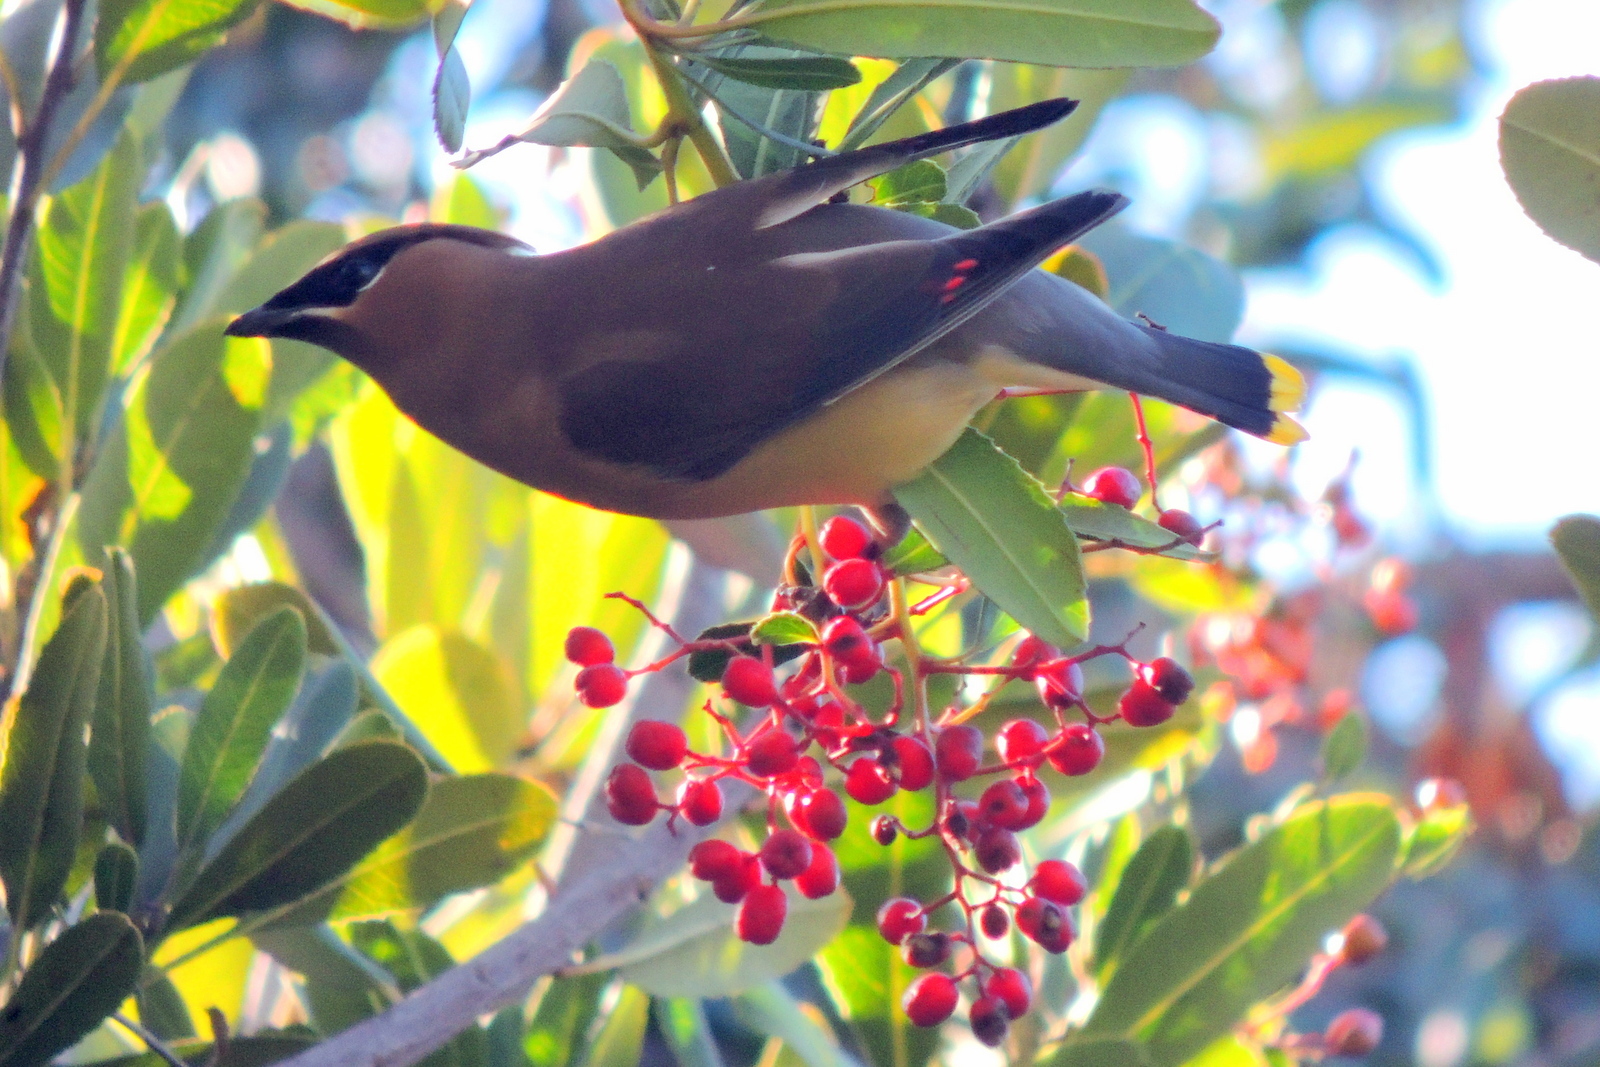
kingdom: Animalia
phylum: Chordata
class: Aves
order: Passeriformes
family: Bombycillidae
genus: Bombycilla
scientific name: Bombycilla cedrorum
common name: Cedar waxwing
